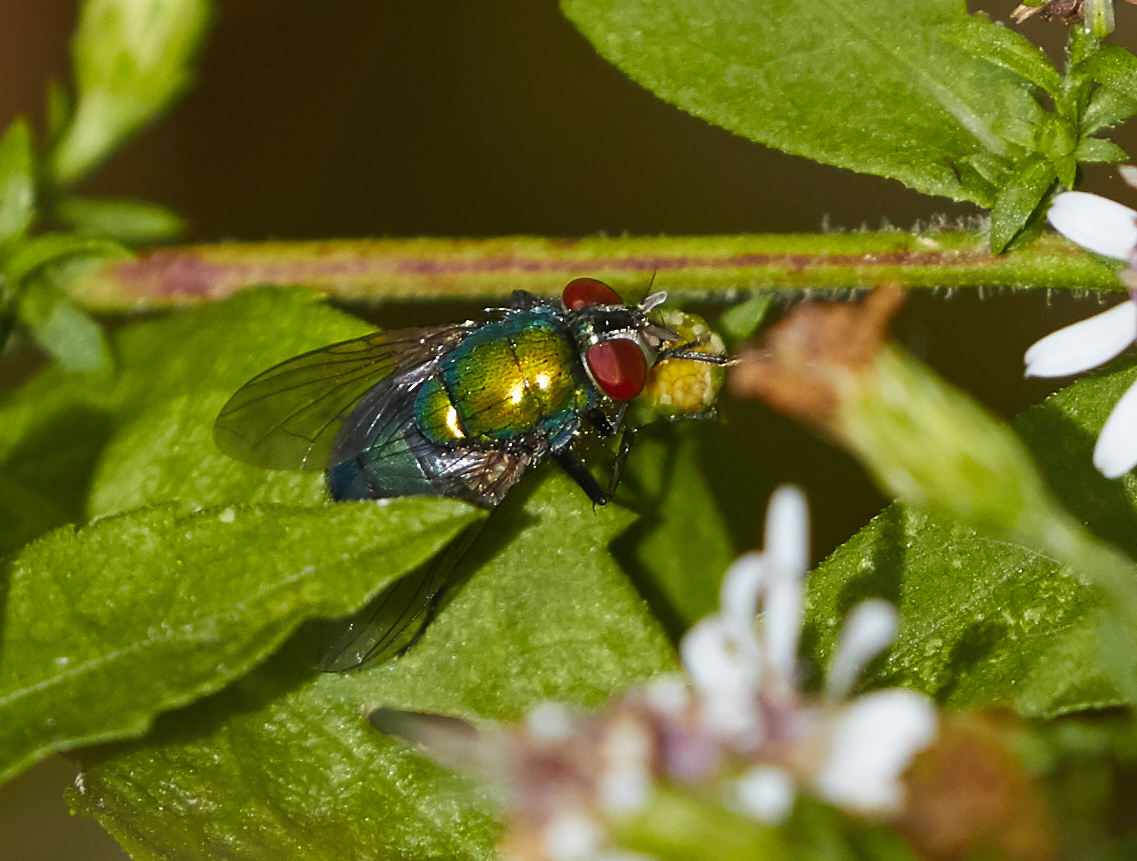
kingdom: Animalia
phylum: Arthropoda
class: Insecta
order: Diptera
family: Calliphoridae
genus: Lucilia
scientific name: Lucilia caeruleiviridis
